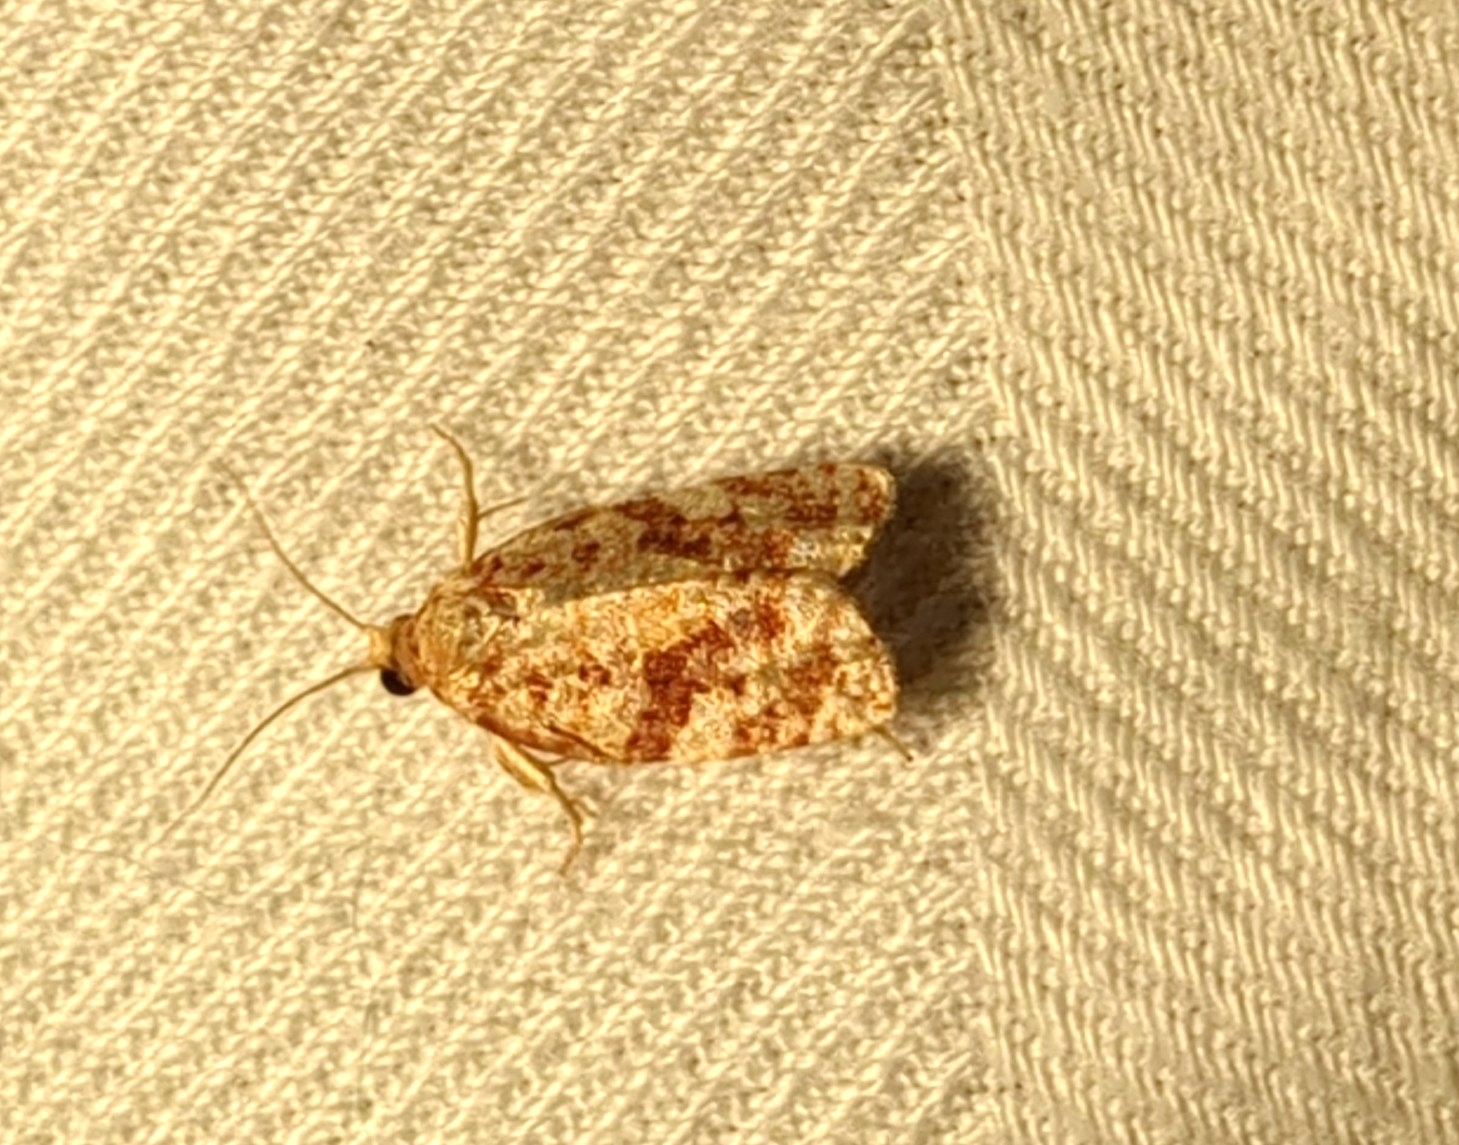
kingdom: Animalia
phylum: Arthropoda
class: Insecta
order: Lepidoptera
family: Tortricidae
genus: Archips
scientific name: Archips argyrospila
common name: Fruit-tree leafroller moth
